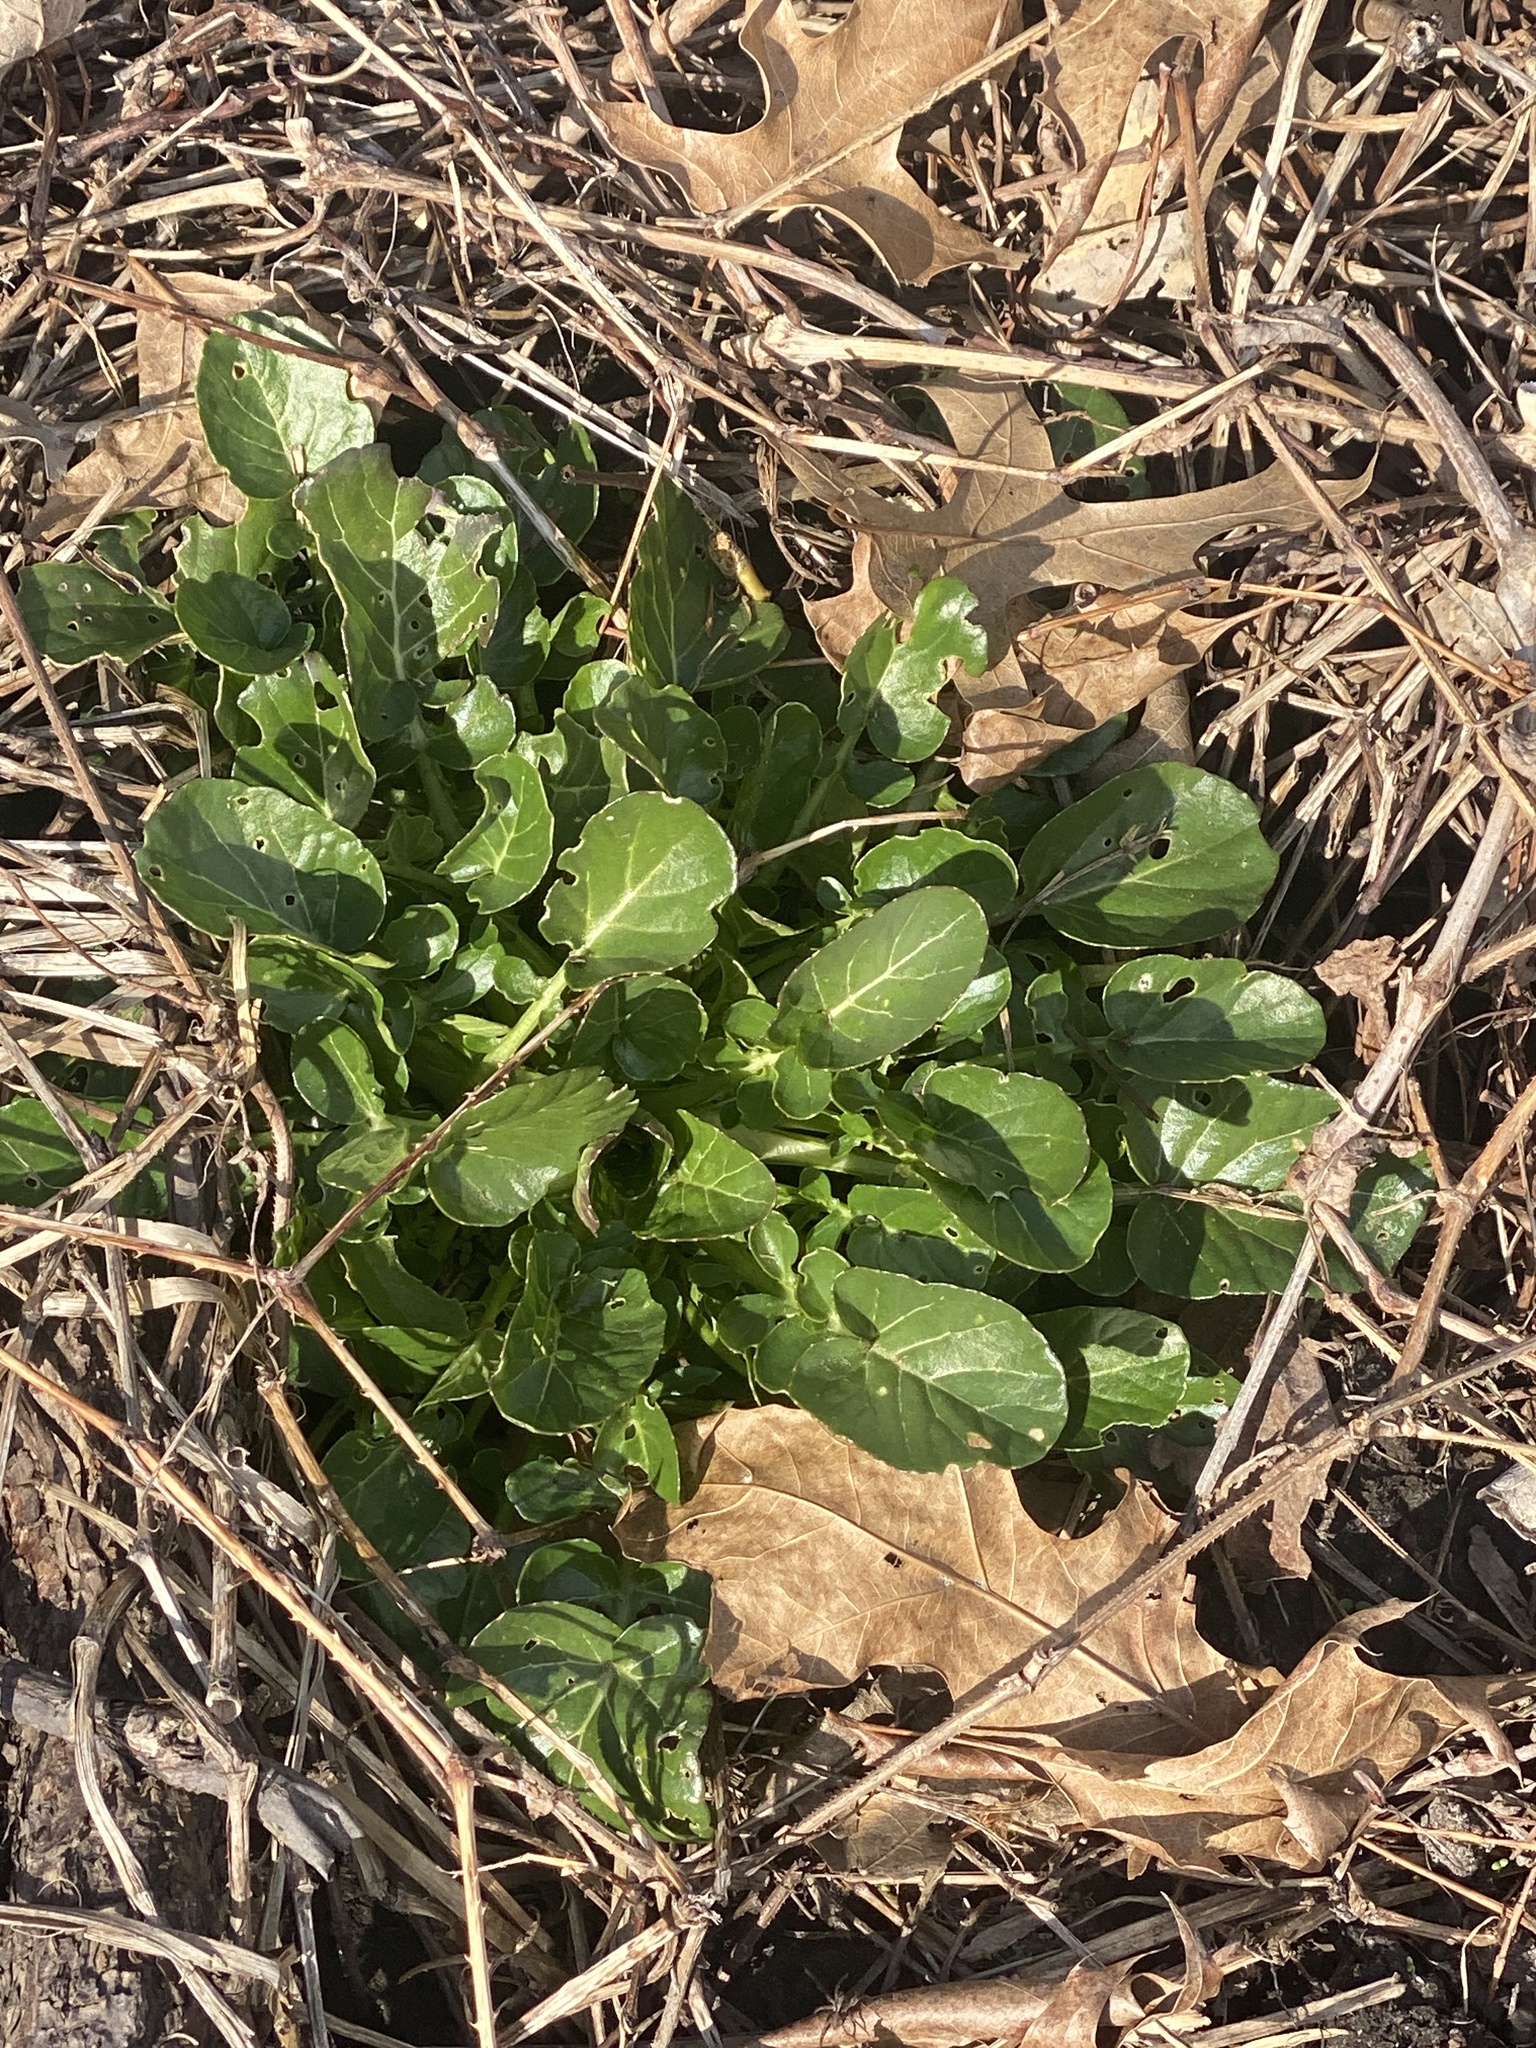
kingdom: Plantae
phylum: Tracheophyta
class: Magnoliopsida
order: Brassicales
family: Brassicaceae
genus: Barbarea
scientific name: Barbarea vulgaris
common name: Cressy-greens
